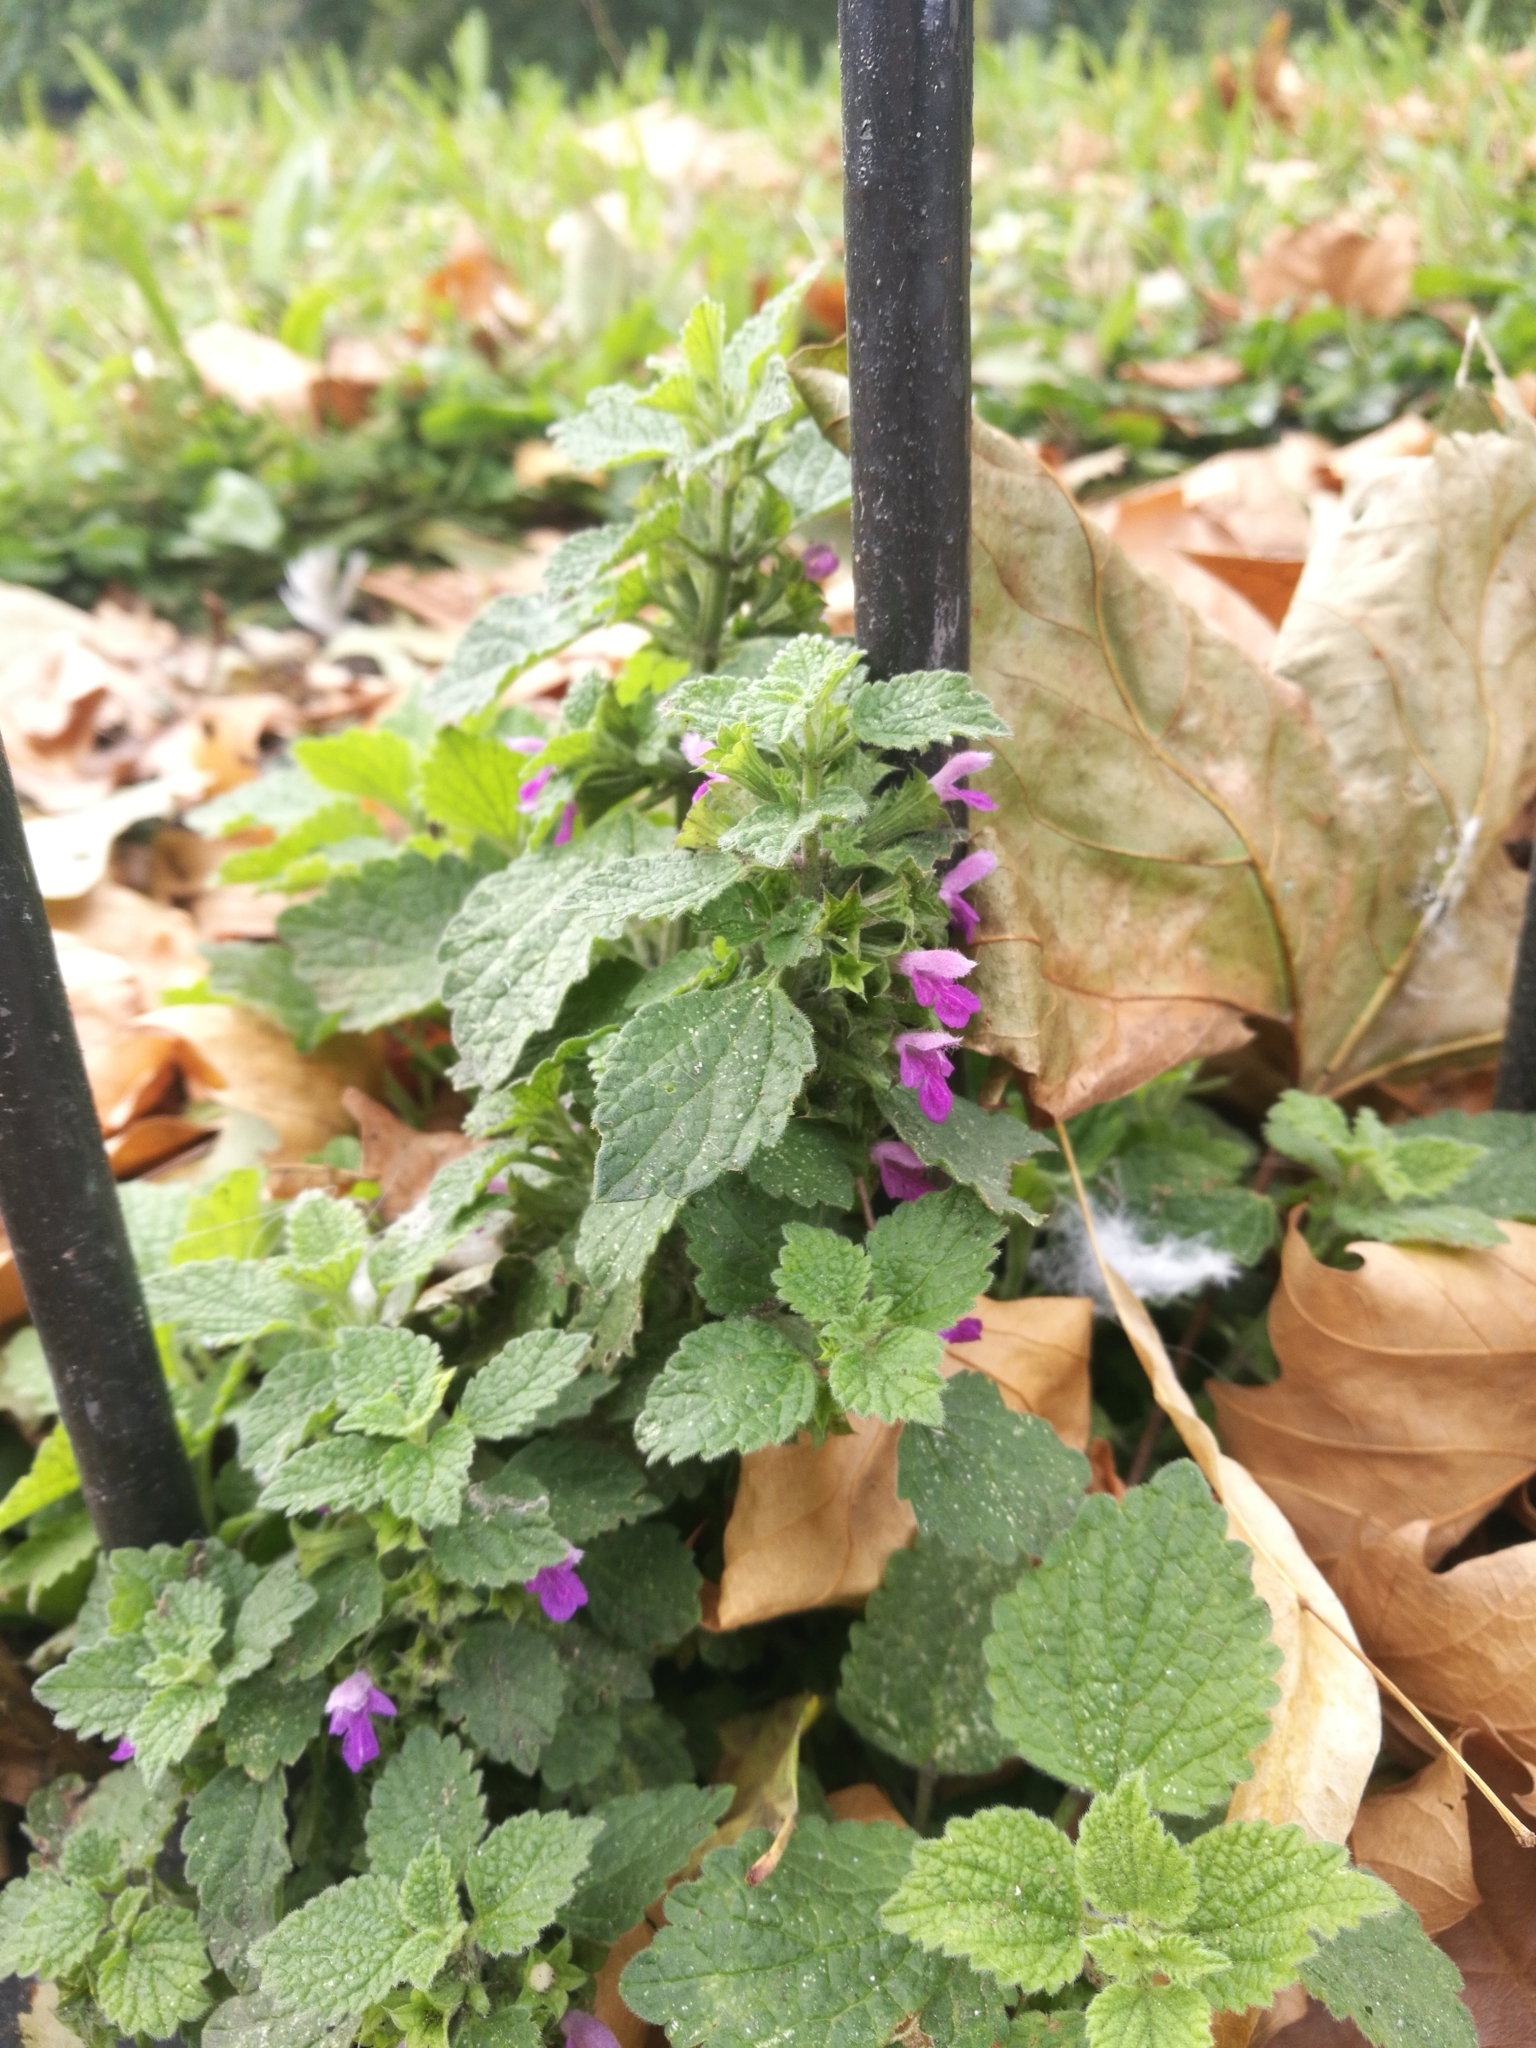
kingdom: Plantae
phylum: Tracheophyta
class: Magnoliopsida
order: Lamiales
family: Lamiaceae
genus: Ballota
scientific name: Ballota nigra
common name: Black horehound
